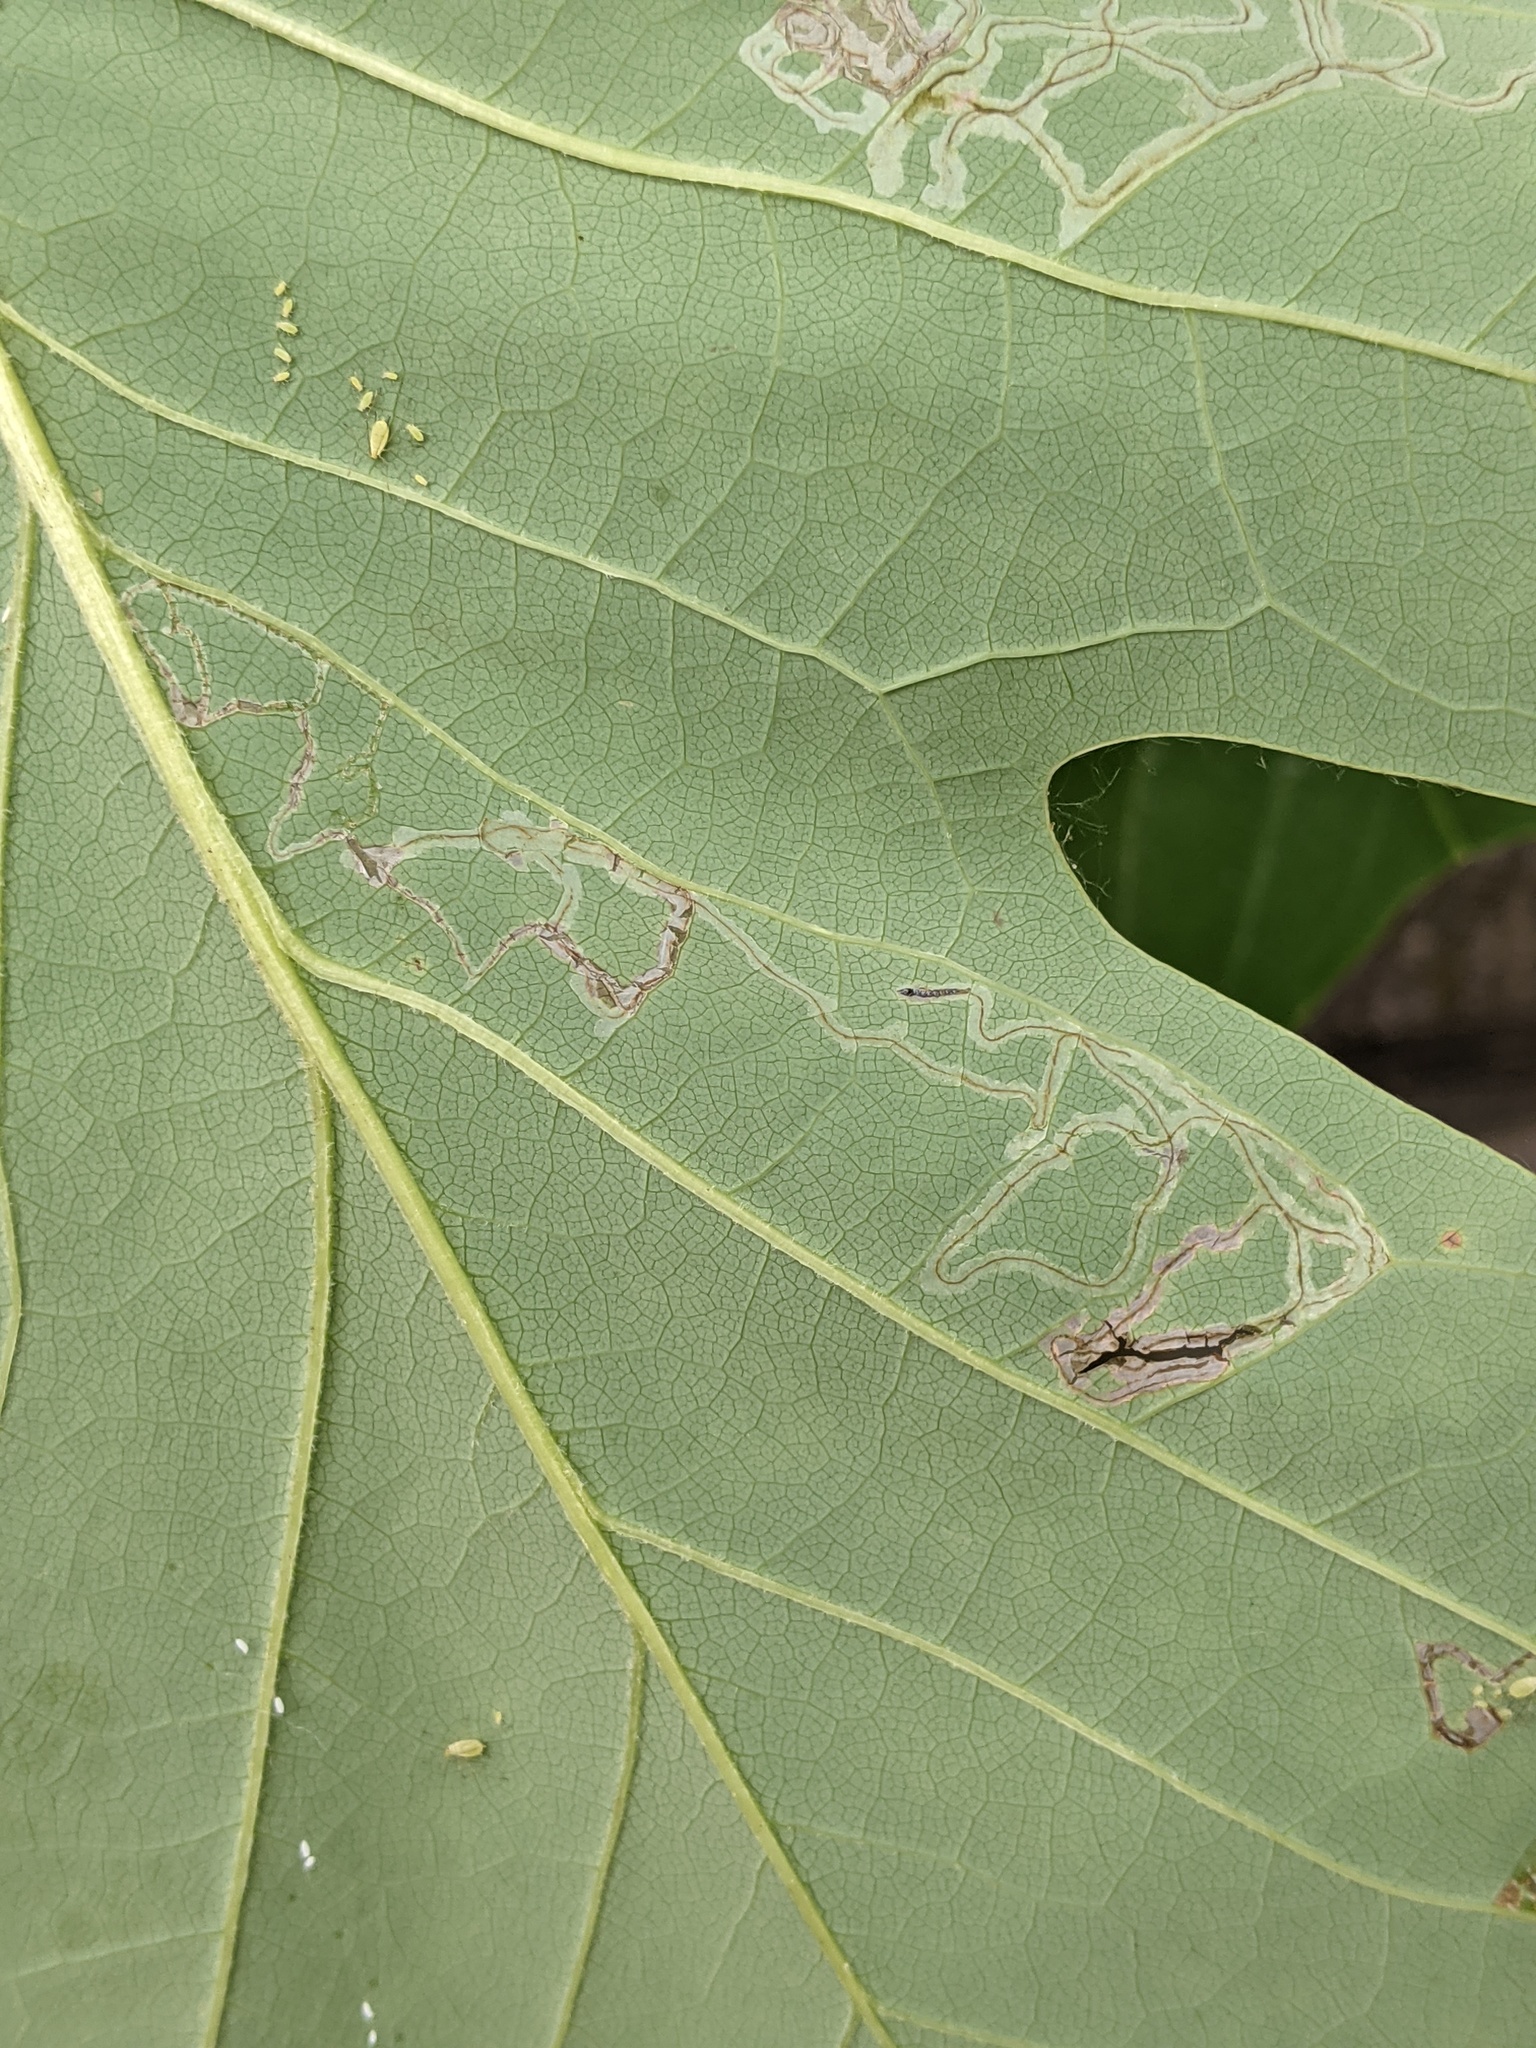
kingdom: Animalia
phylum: Arthropoda
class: Insecta
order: Lepidoptera
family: Gracillariidae
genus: Phyllocnistis
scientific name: Phyllocnistis liriodendronella
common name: Tulip tree leaf miner
